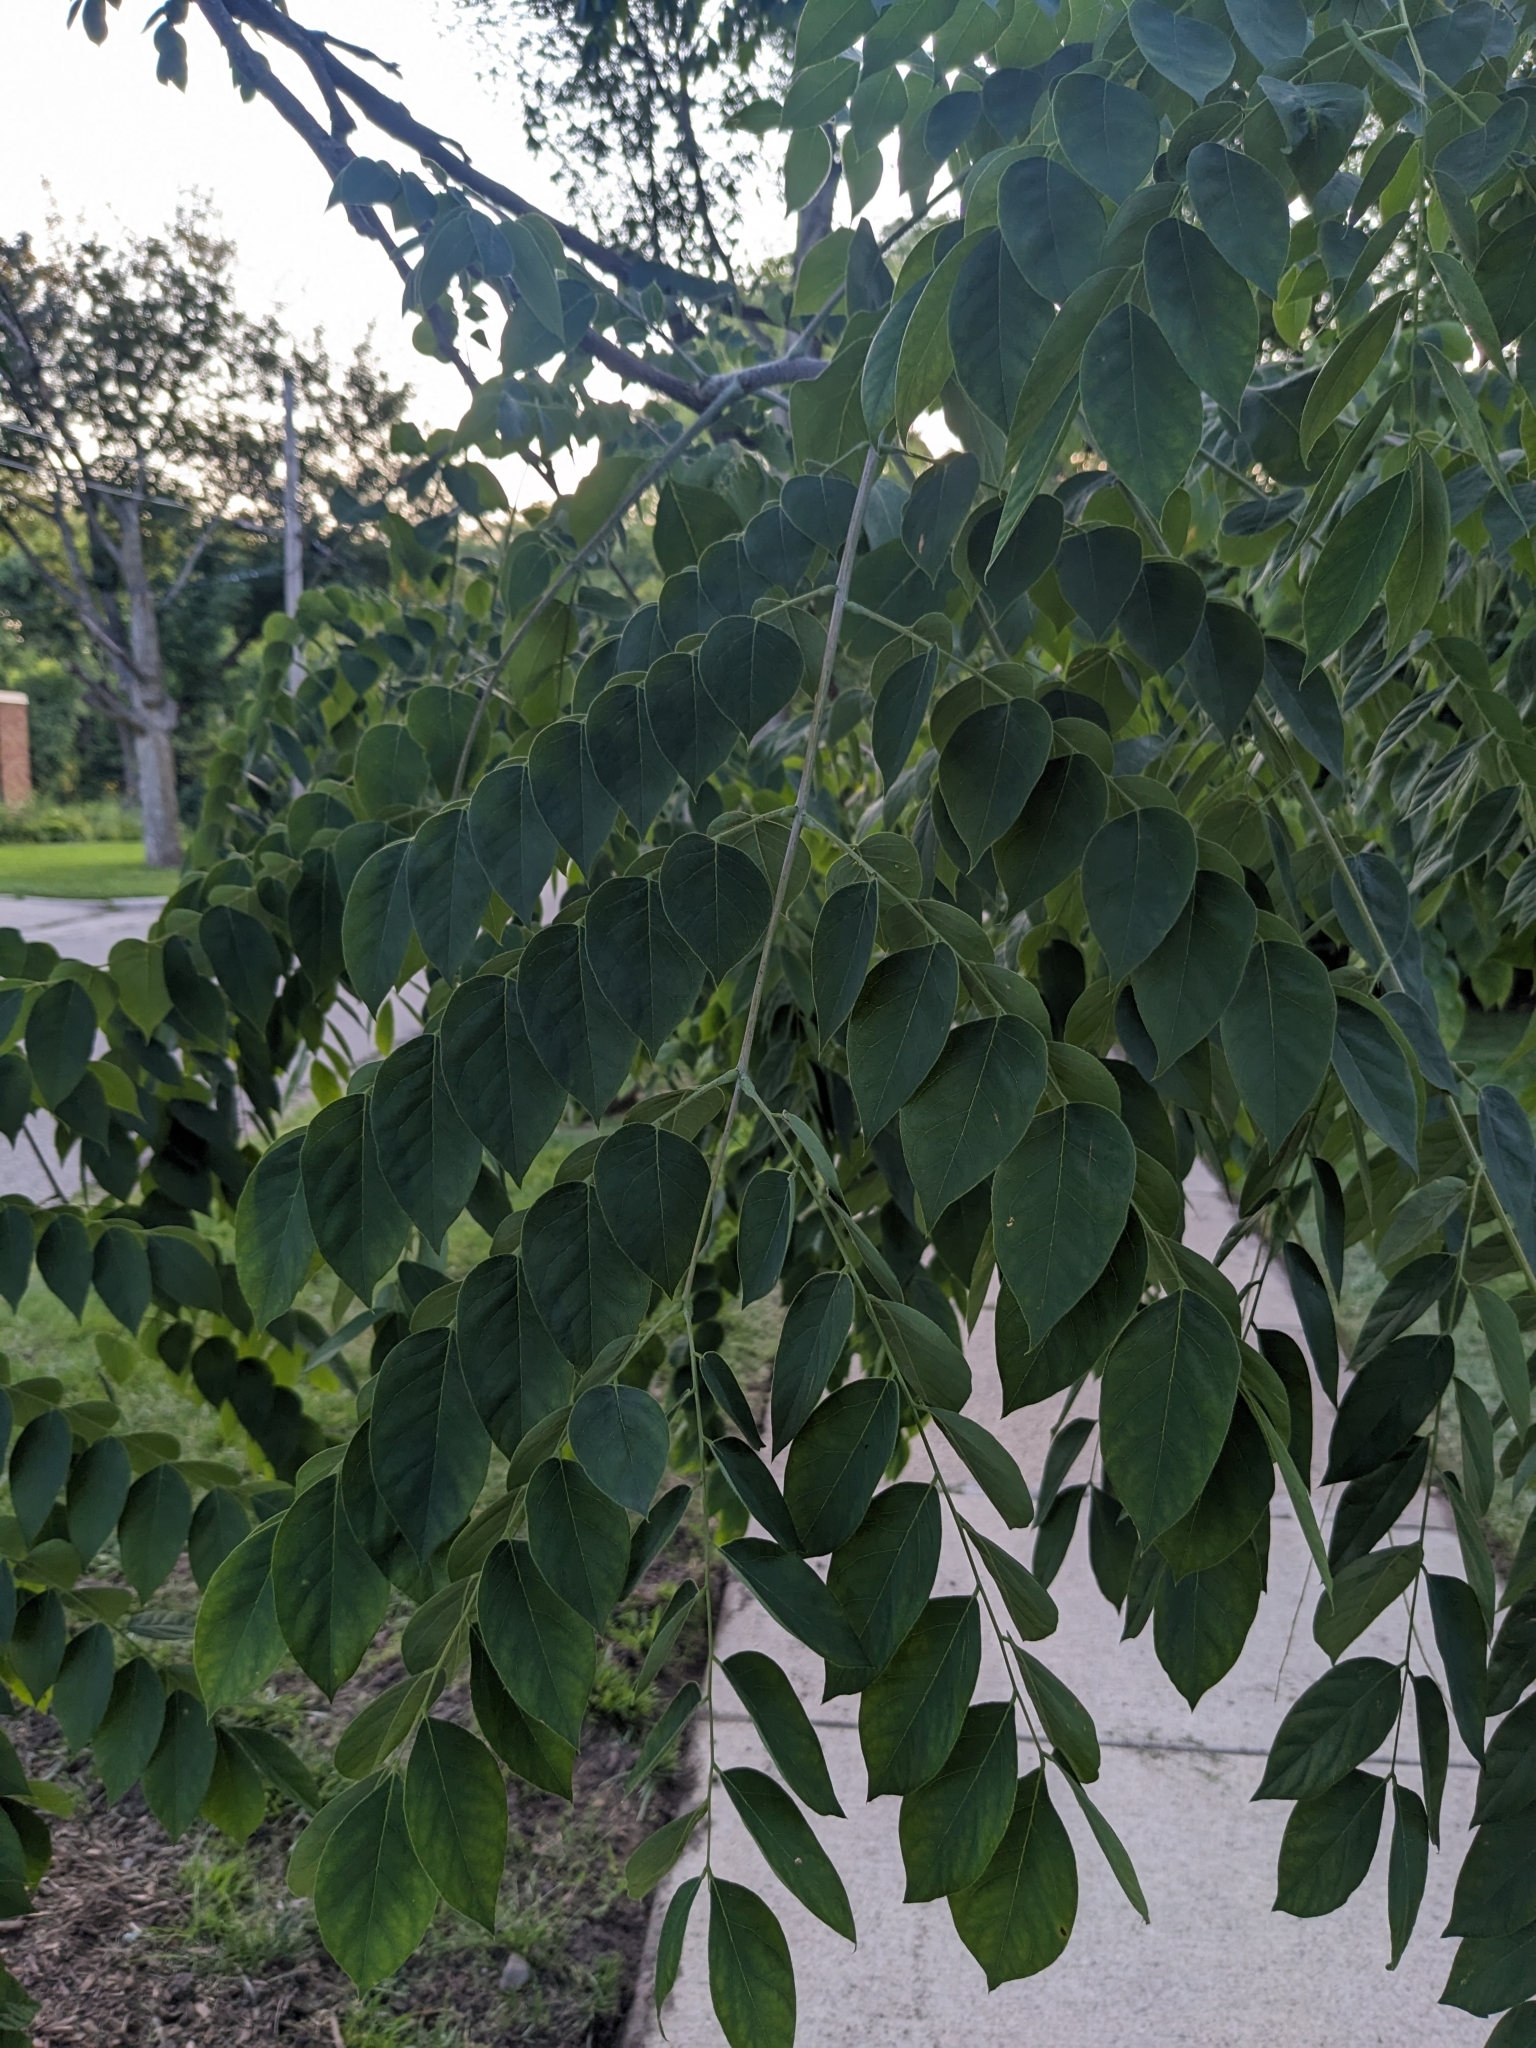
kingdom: Plantae
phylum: Tracheophyta
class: Magnoliopsida
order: Fabales
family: Fabaceae
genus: Gymnocladus
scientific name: Gymnocladus dioicus
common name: Kentucky coffee-tree
